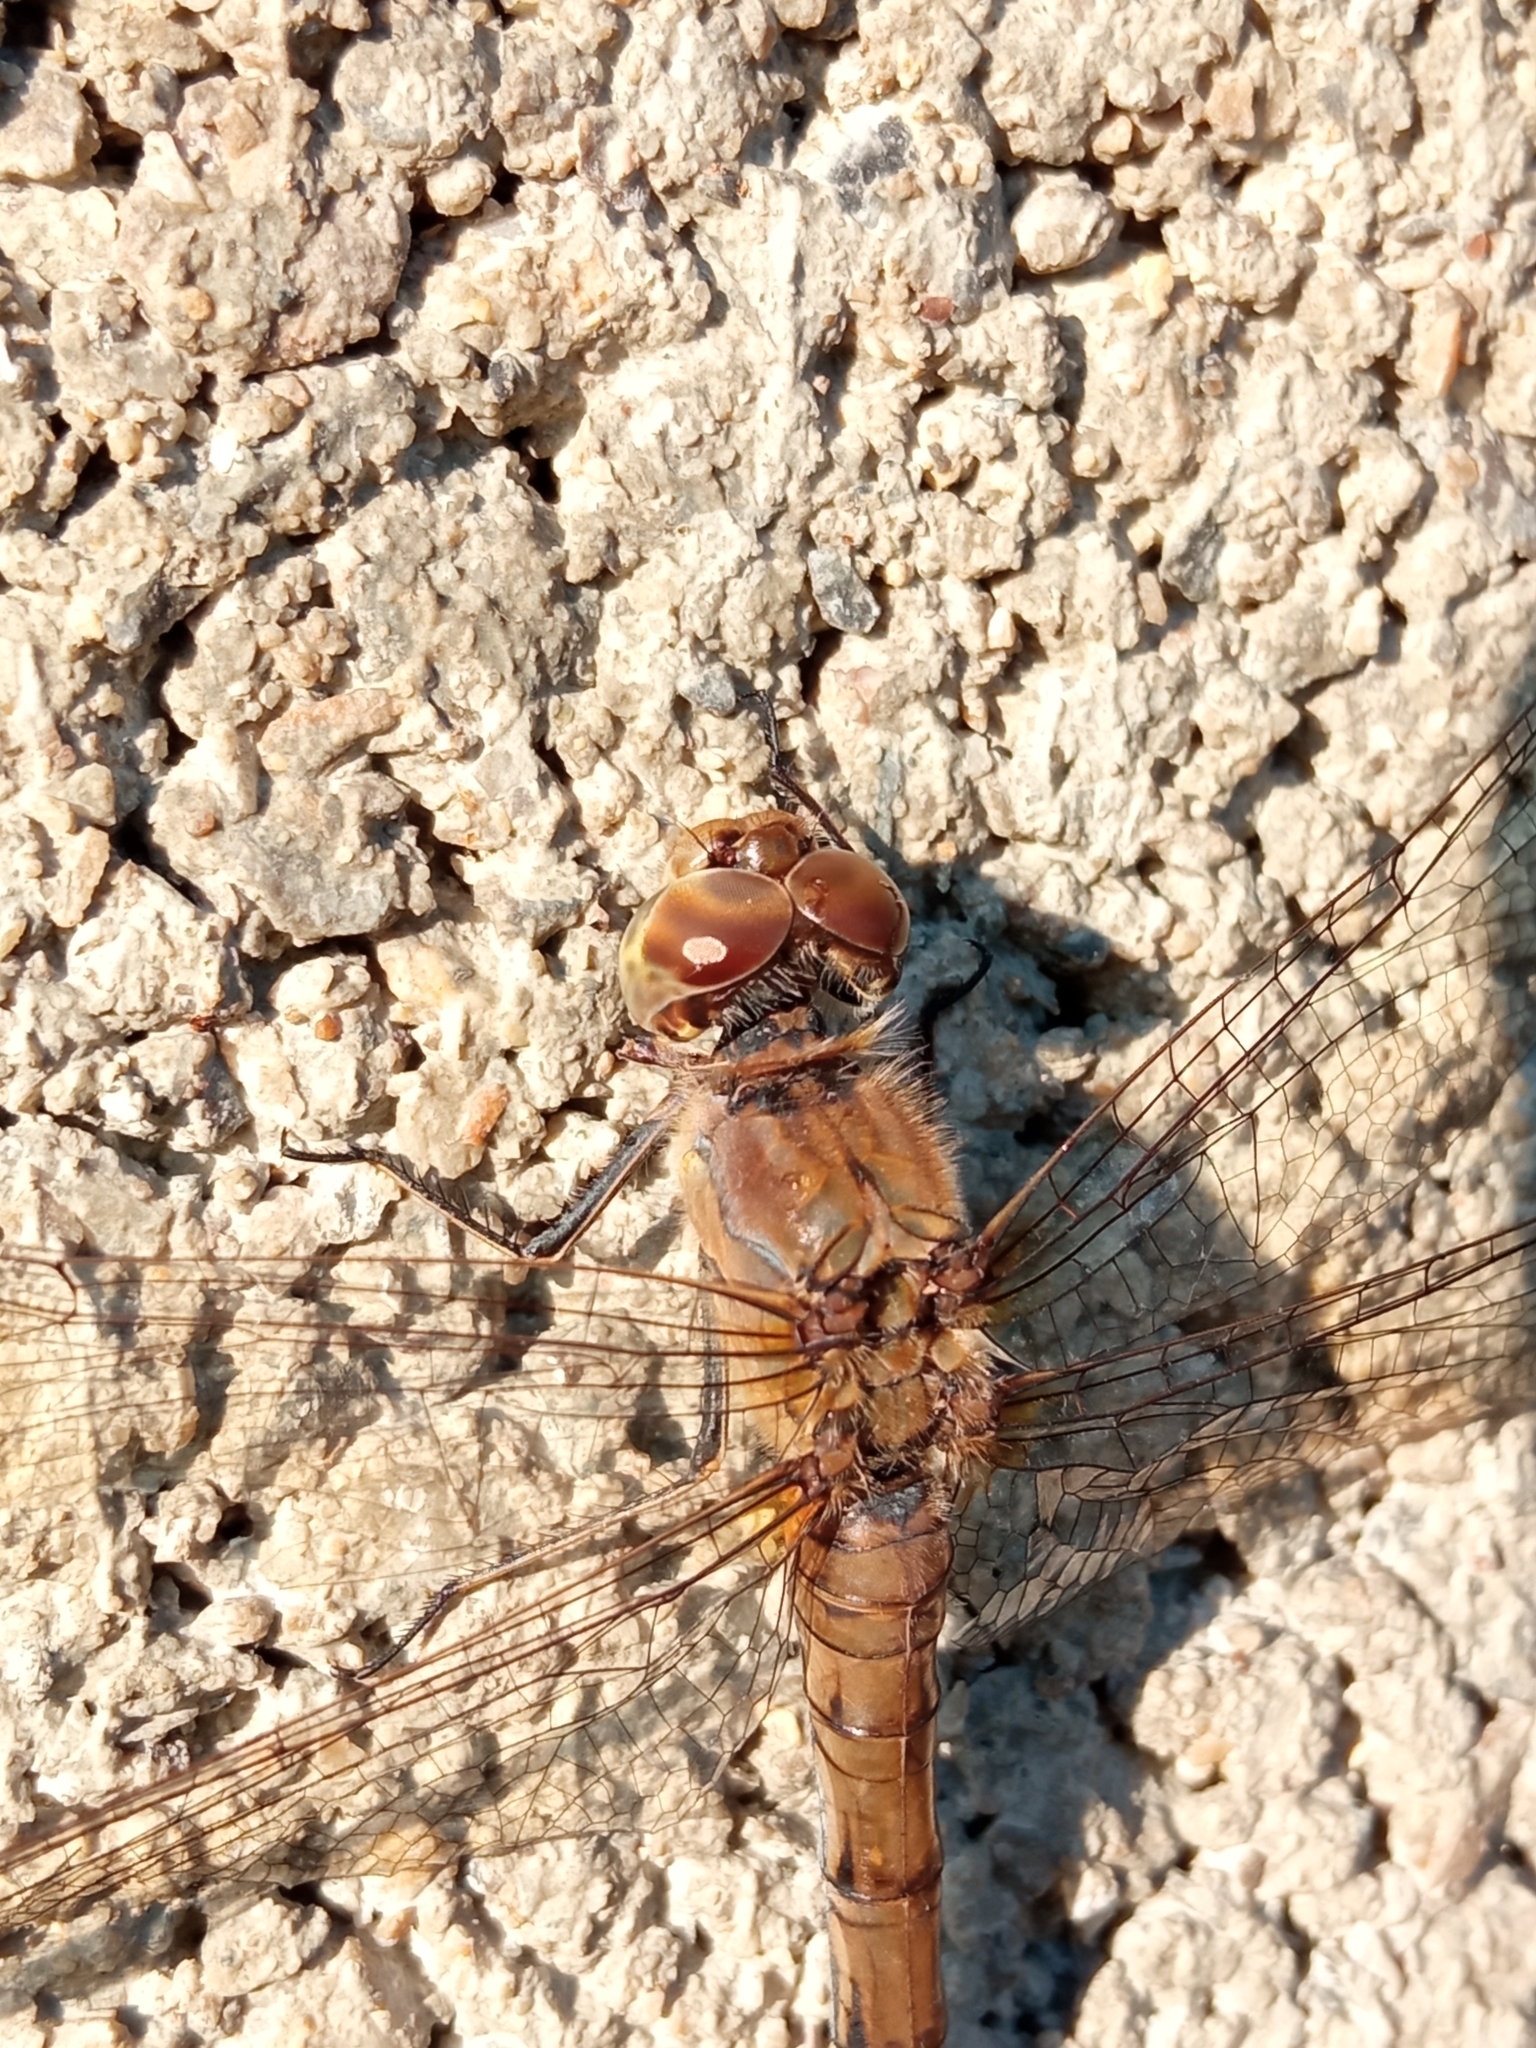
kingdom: Animalia
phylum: Arthropoda
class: Insecta
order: Odonata
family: Libellulidae
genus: Sympetrum
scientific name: Sympetrum striolatum
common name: Common darter
